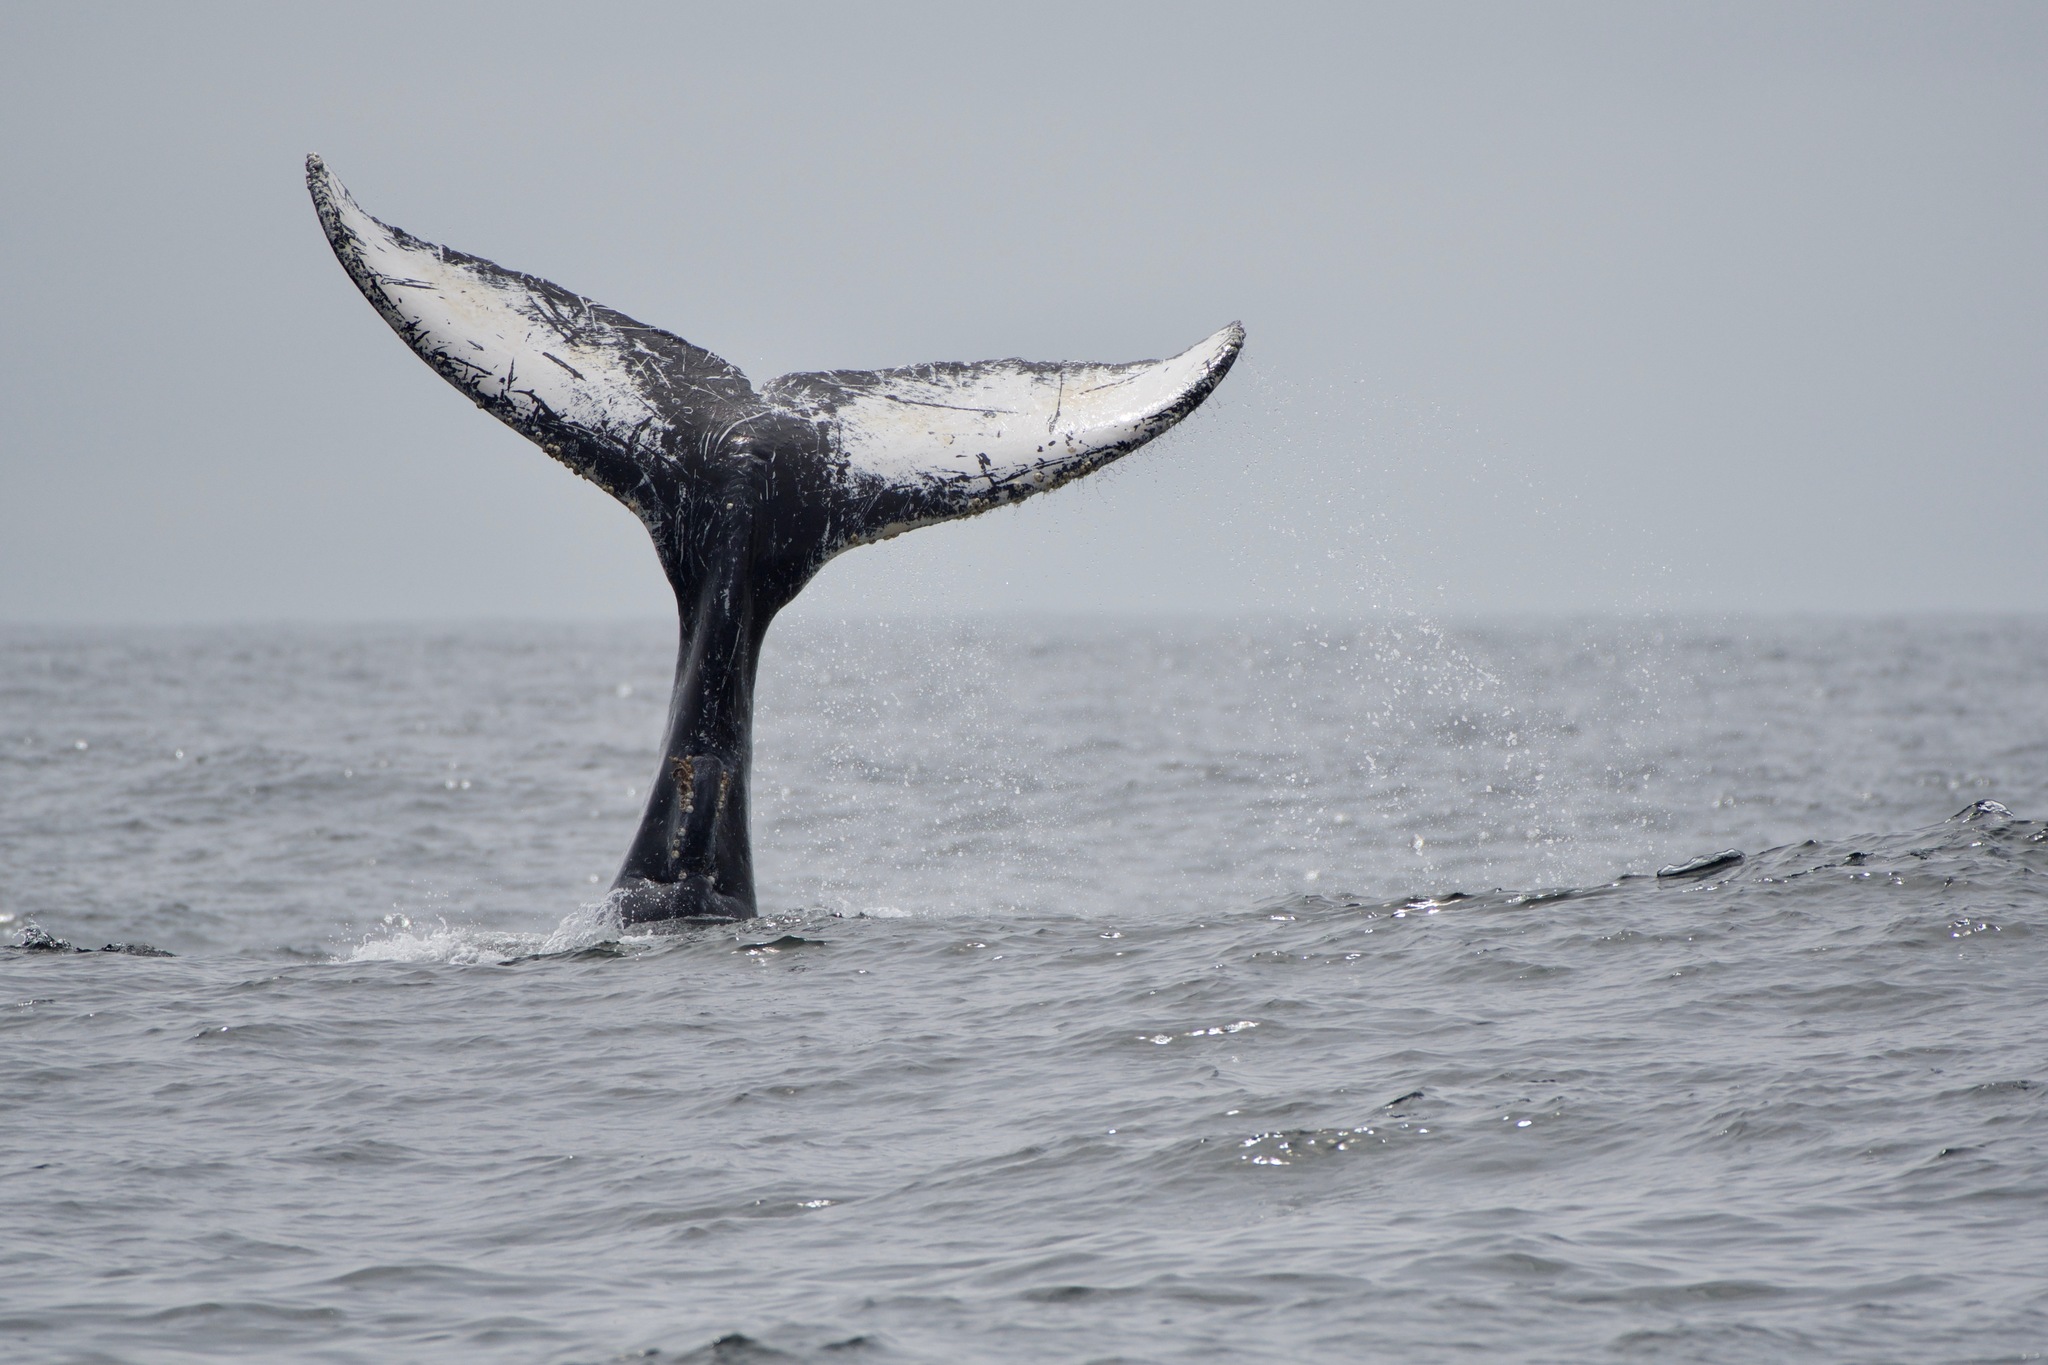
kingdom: Animalia
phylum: Chordata
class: Mammalia
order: Cetacea
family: Balaenopteridae
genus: Megaptera
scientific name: Megaptera novaeangliae
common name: Humpback whale
